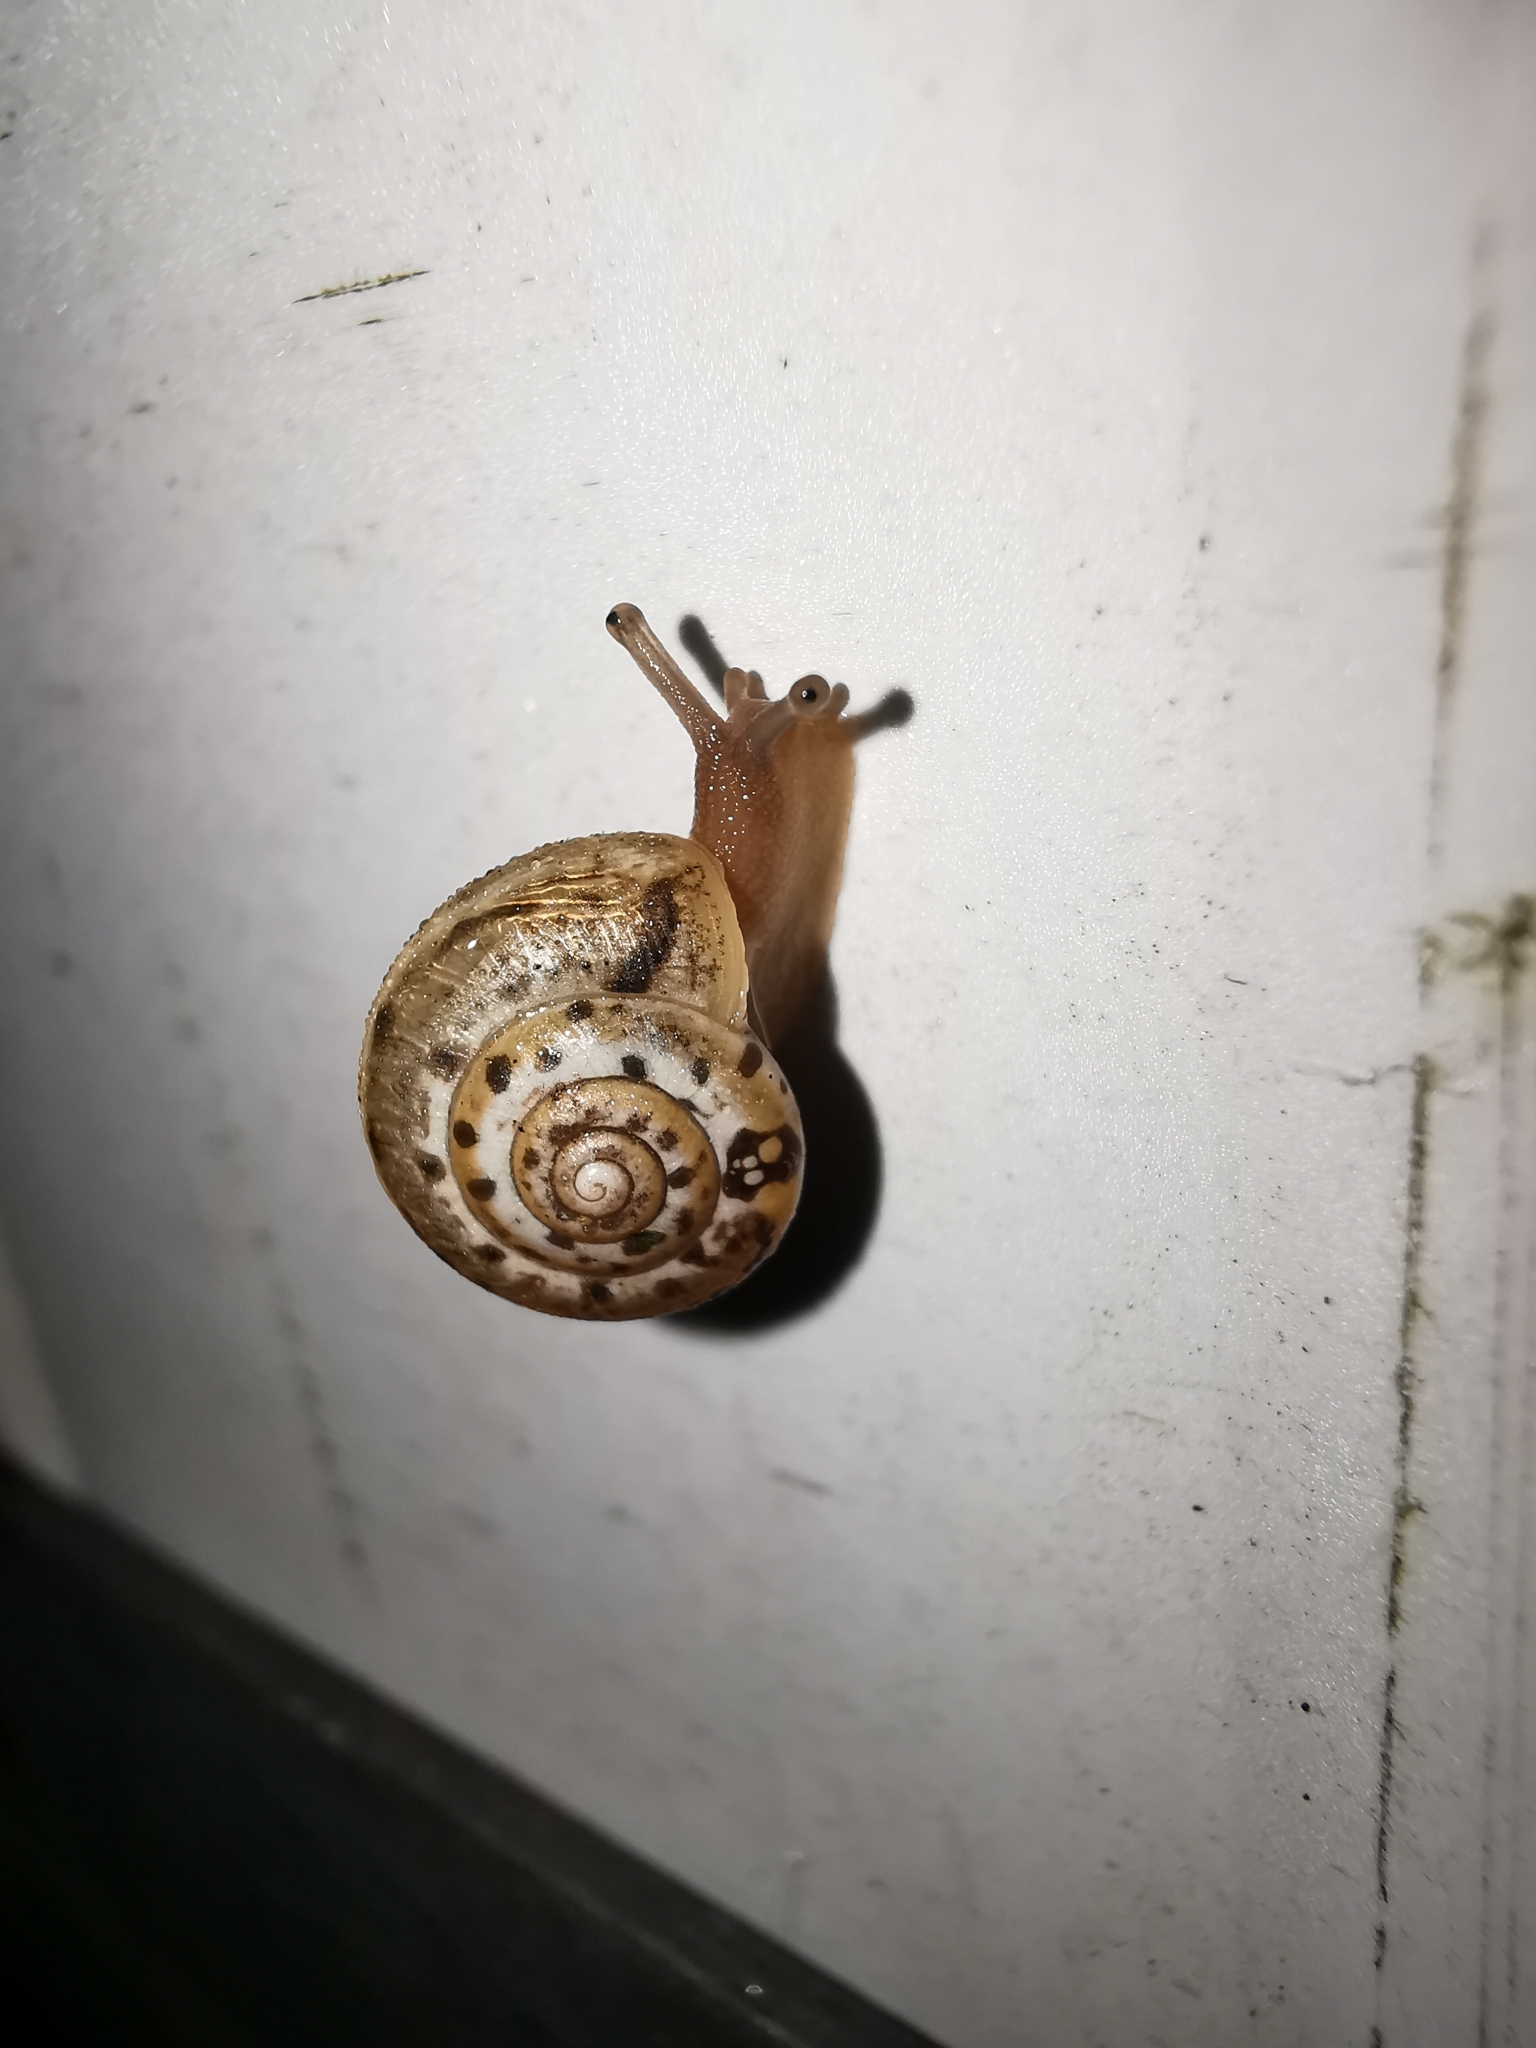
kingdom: Animalia
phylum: Mollusca
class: Gastropoda
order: Stylommatophora
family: Hygromiidae
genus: Monacha
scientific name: Monacha
